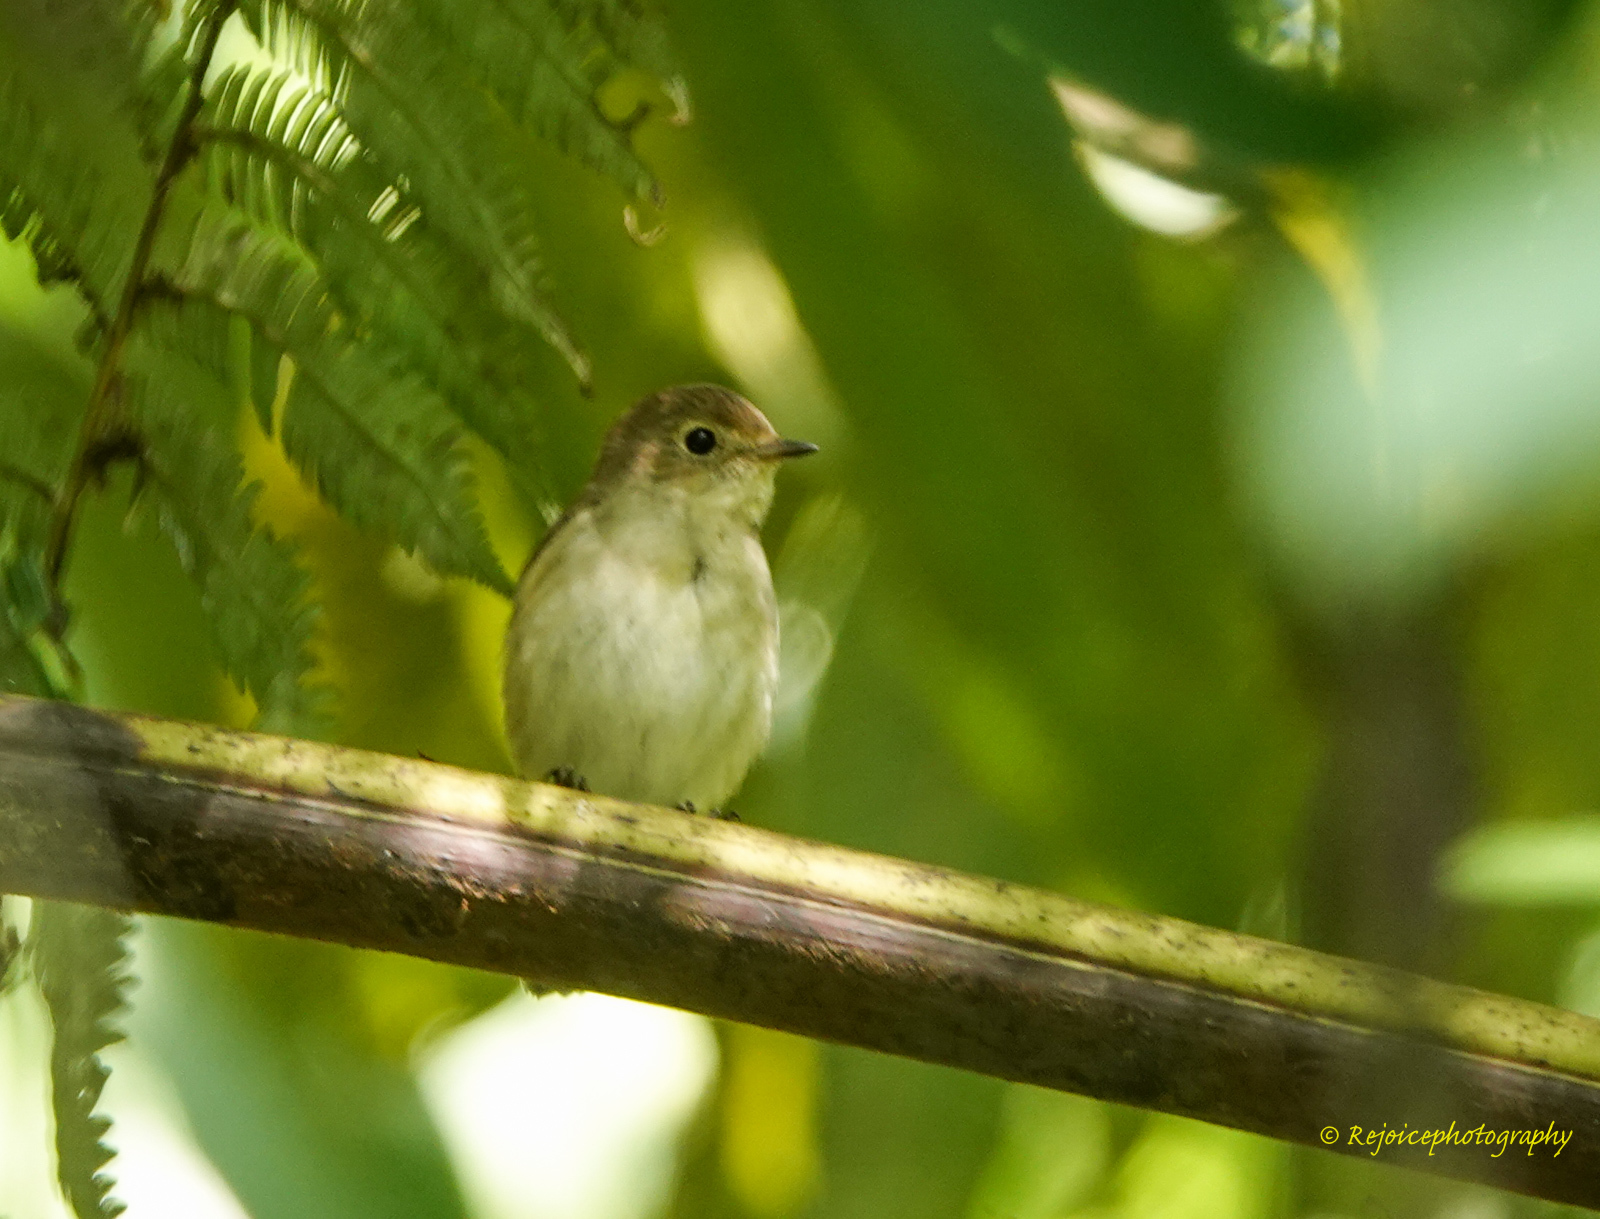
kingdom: Animalia
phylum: Chordata
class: Aves
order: Passeriformes
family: Muscicapidae
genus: Ficedula
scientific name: Ficedula albicilla
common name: Taiga flycatcher
